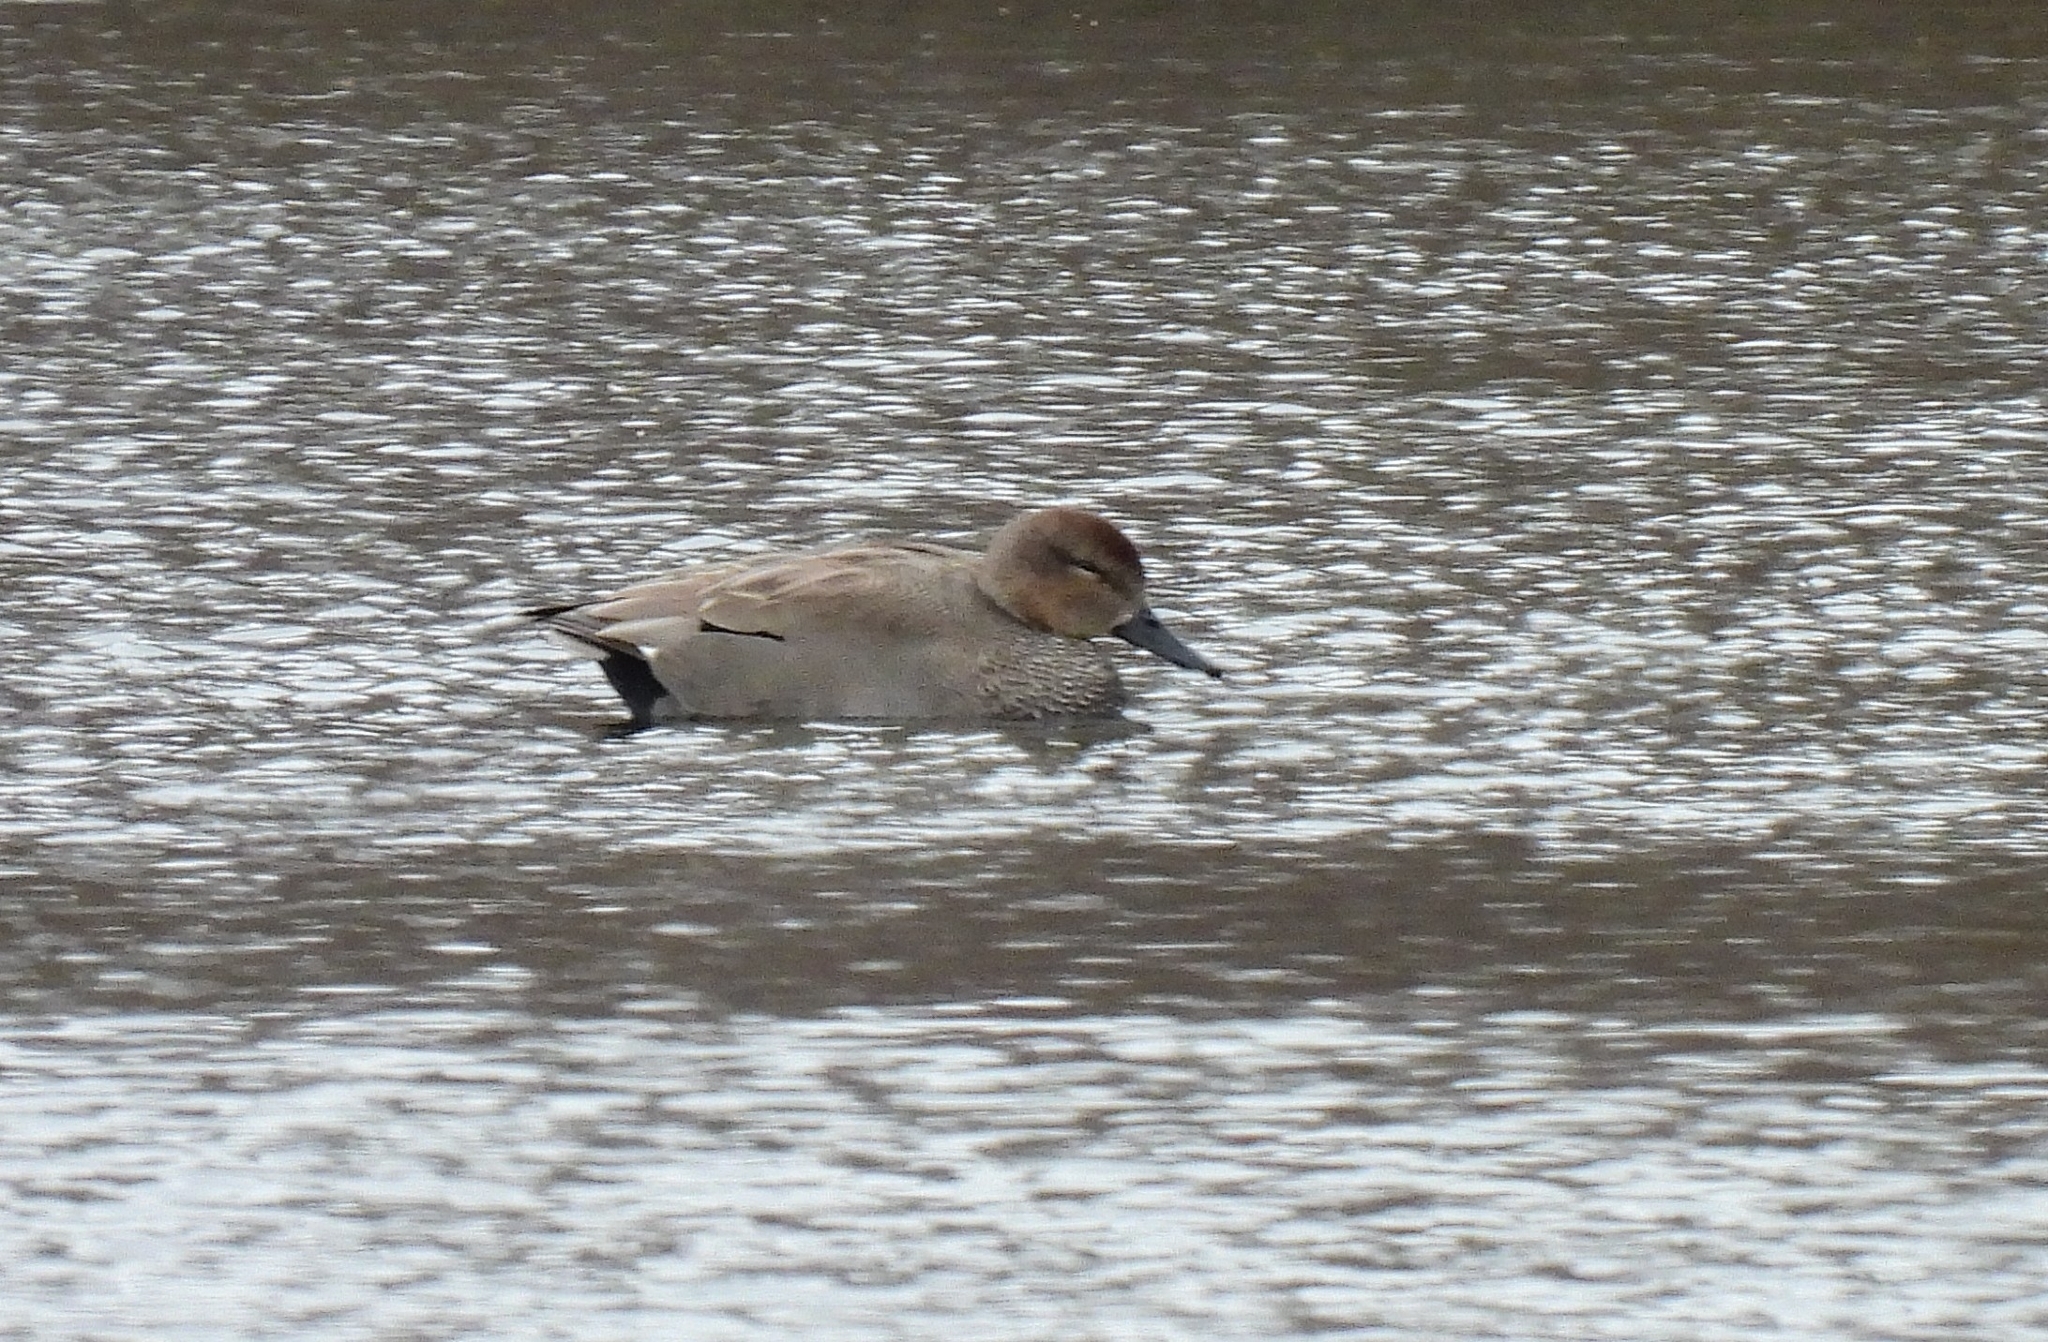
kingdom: Animalia
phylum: Chordata
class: Aves
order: Anseriformes
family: Anatidae
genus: Mareca
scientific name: Mareca strepera
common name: Gadwall
